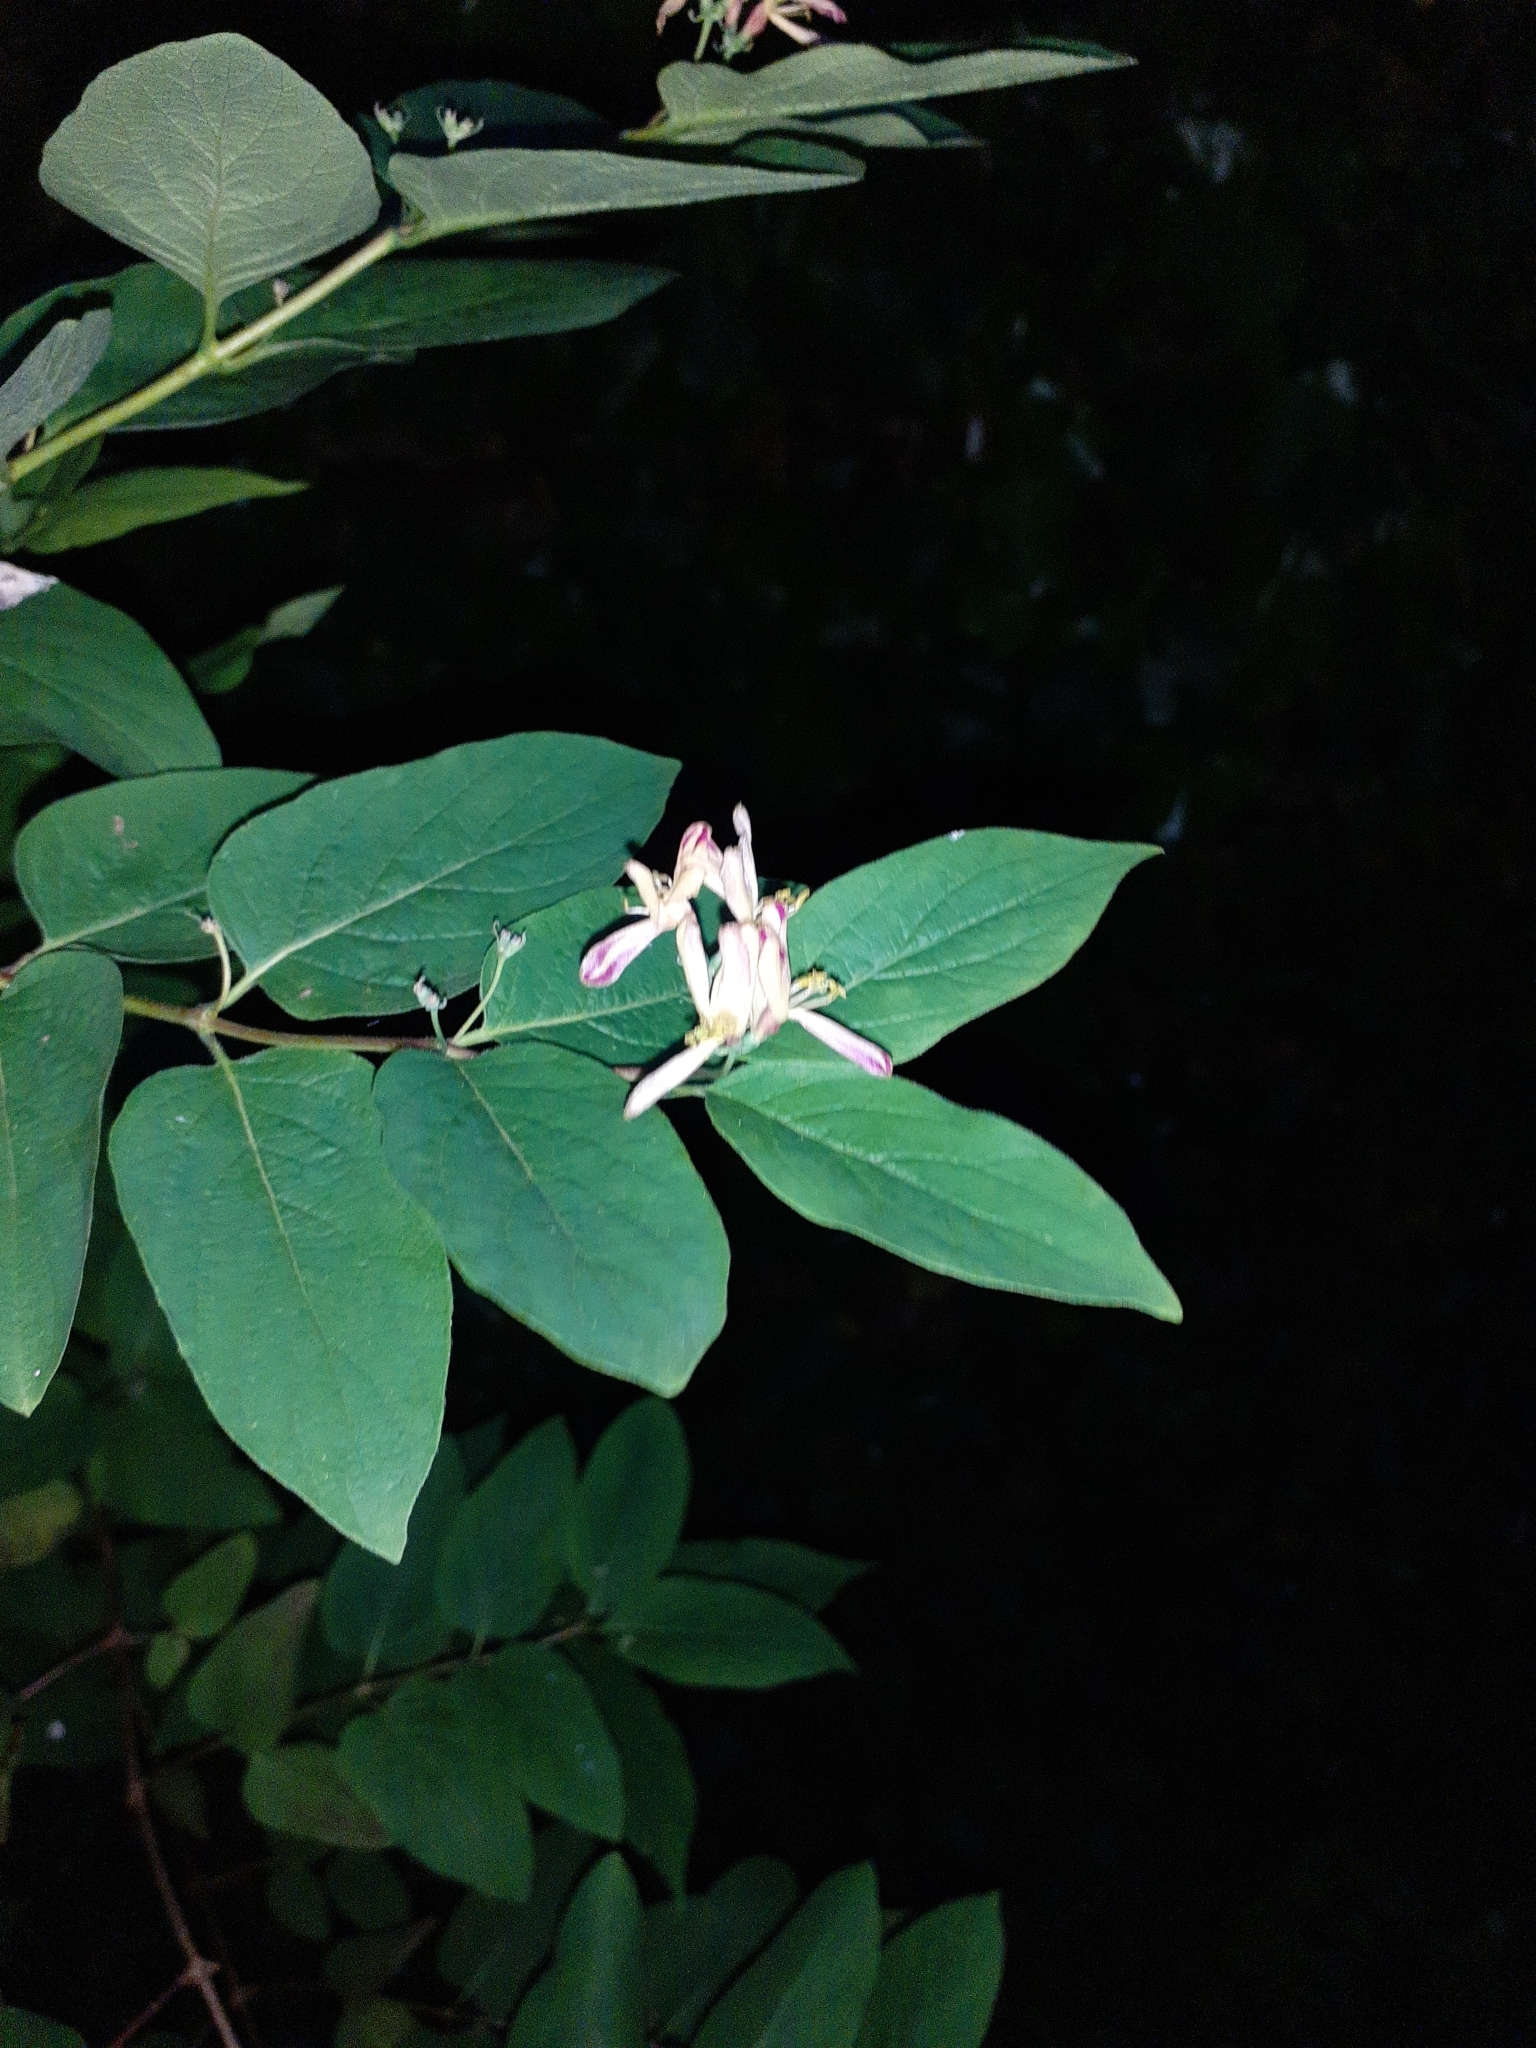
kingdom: Plantae
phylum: Tracheophyta
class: Magnoliopsida
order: Dipsacales
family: Caprifoliaceae
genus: Lonicera
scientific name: Lonicera tatarica
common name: Tatarian honeysuckle
